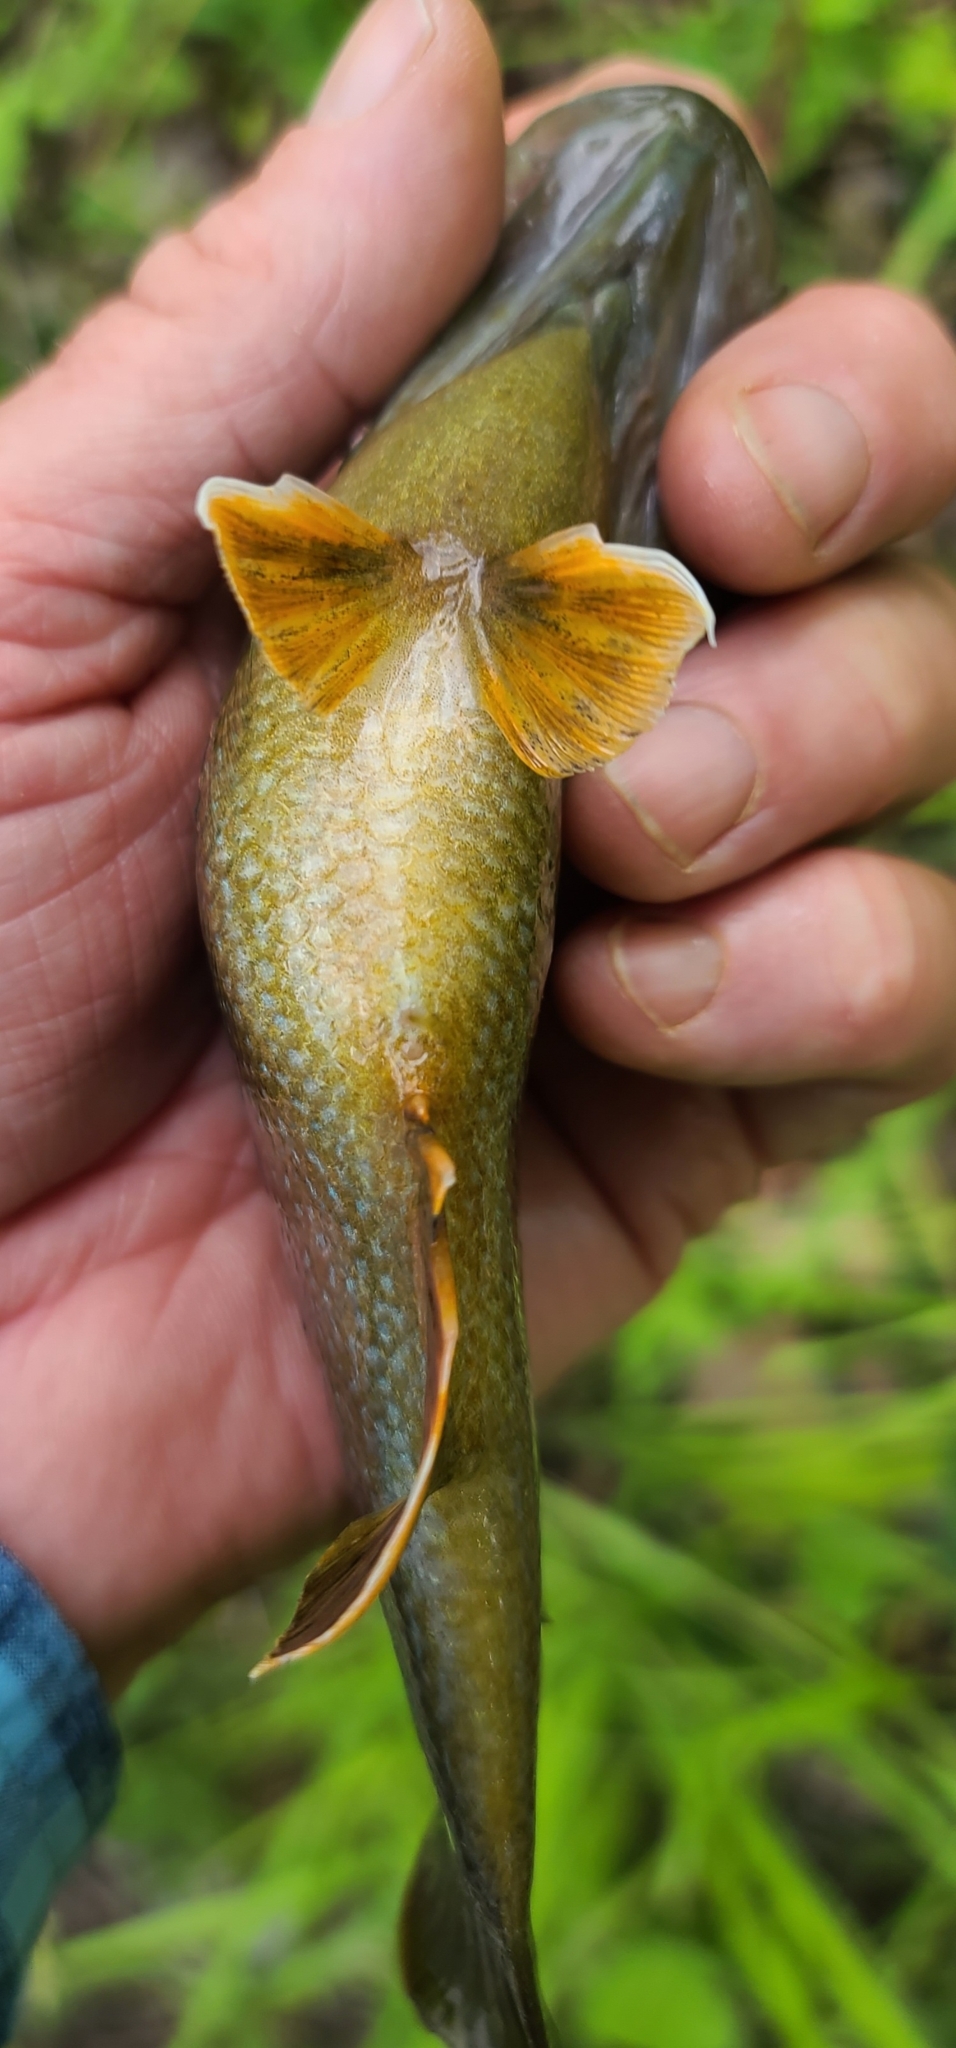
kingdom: Animalia
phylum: Chordata
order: Perciformes
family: Centrarchidae
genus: Lepomis
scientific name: Lepomis cyanellus
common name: Green sunfish
